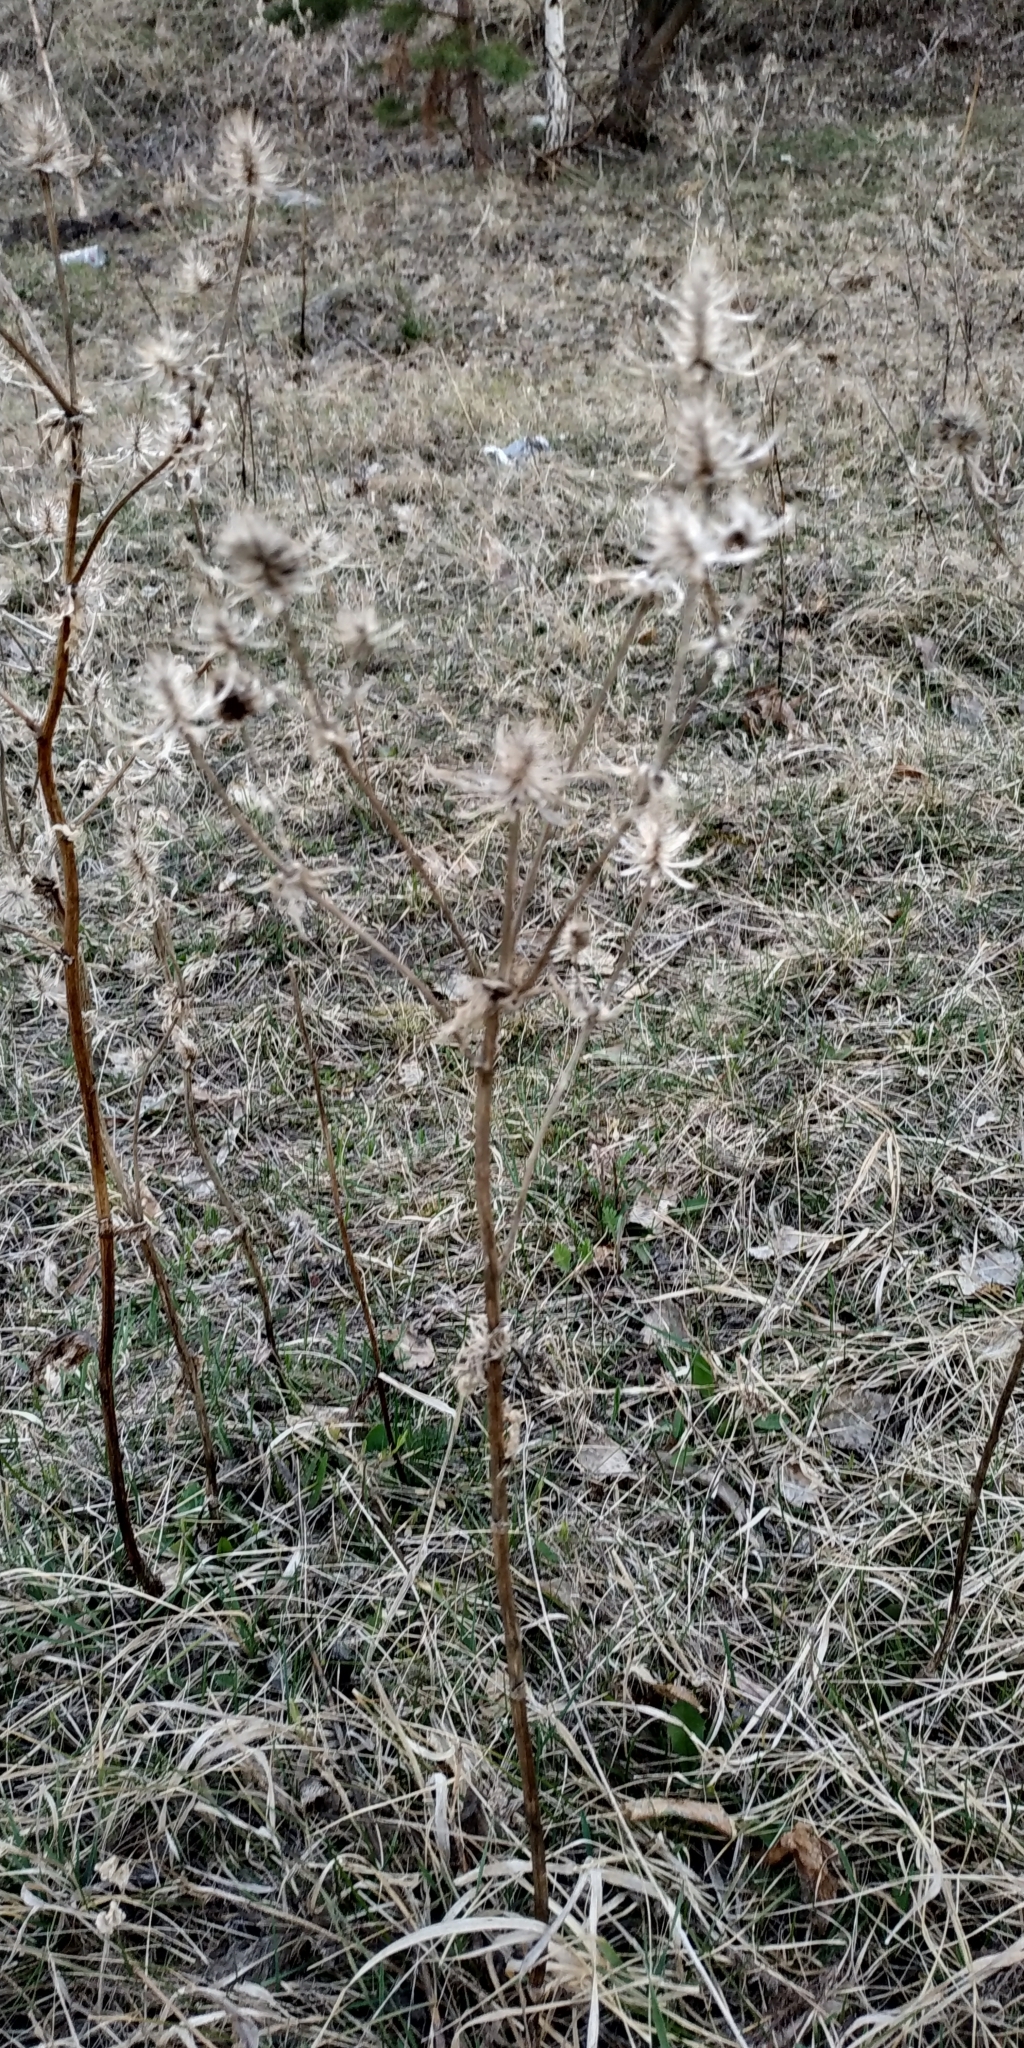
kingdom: Plantae
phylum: Tracheophyta
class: Magnoliopsida
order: Apiales
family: Apiaceae
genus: Eryngium
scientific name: Eryngium planum
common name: Blue eryngo
